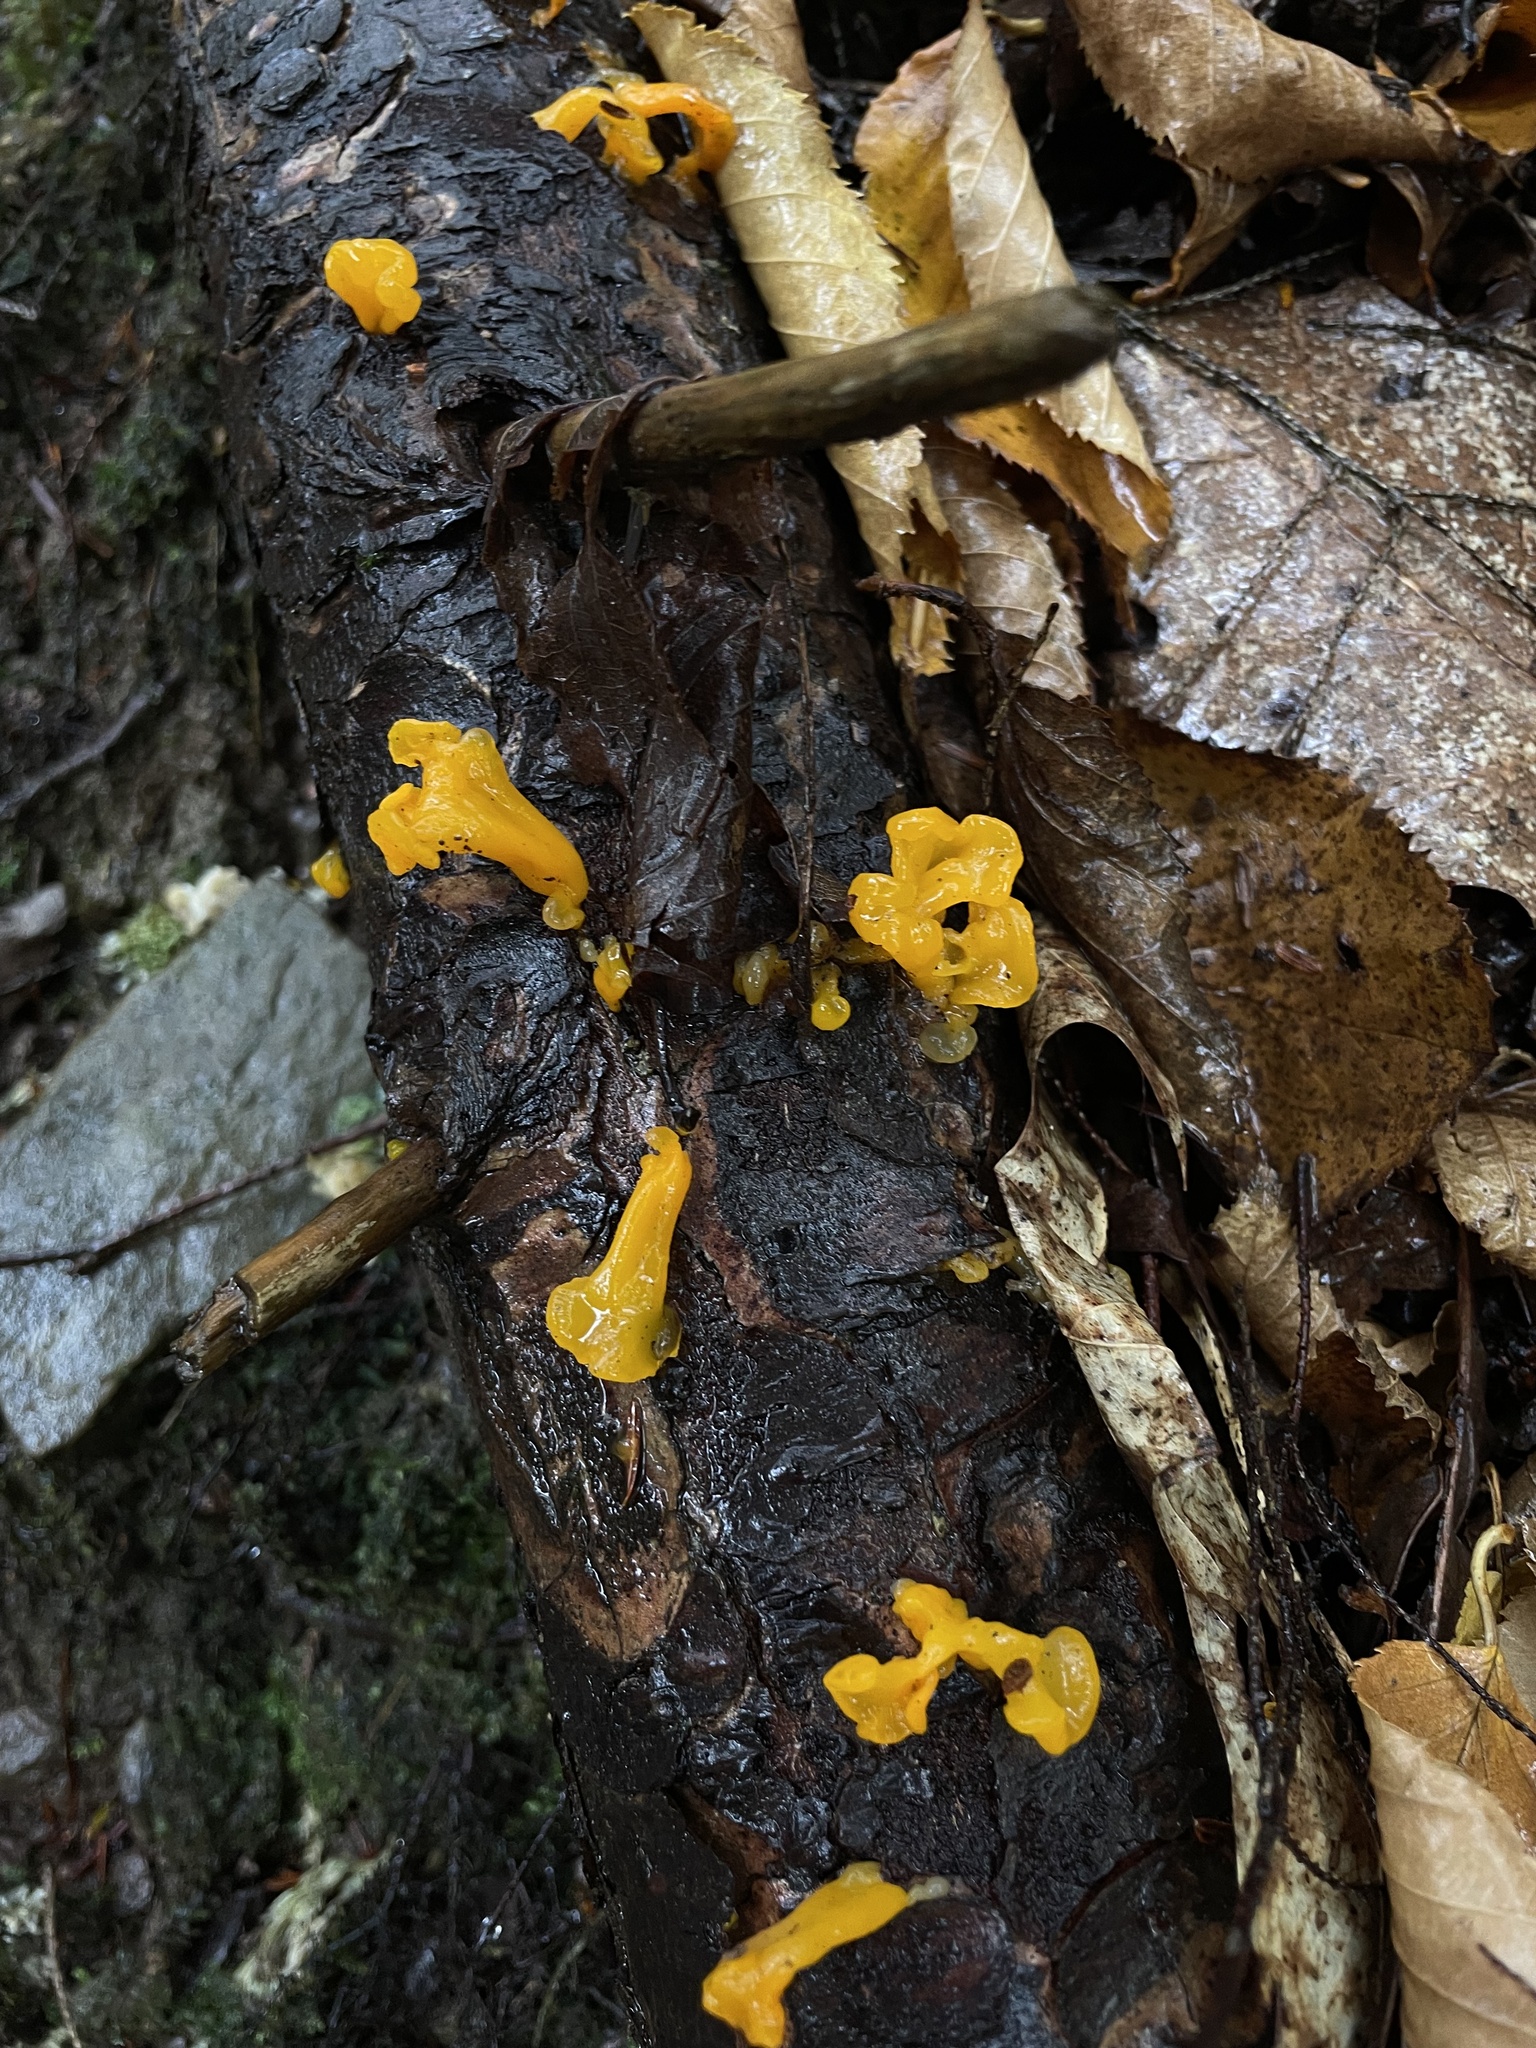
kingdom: Fungi
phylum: Basidiomycota
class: Dacrymycetes
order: Dacrymycetales
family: Dacrymycetaceae
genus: Dacrymyces
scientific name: Dacrymyces chrysospermus
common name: Orange jelly spot
